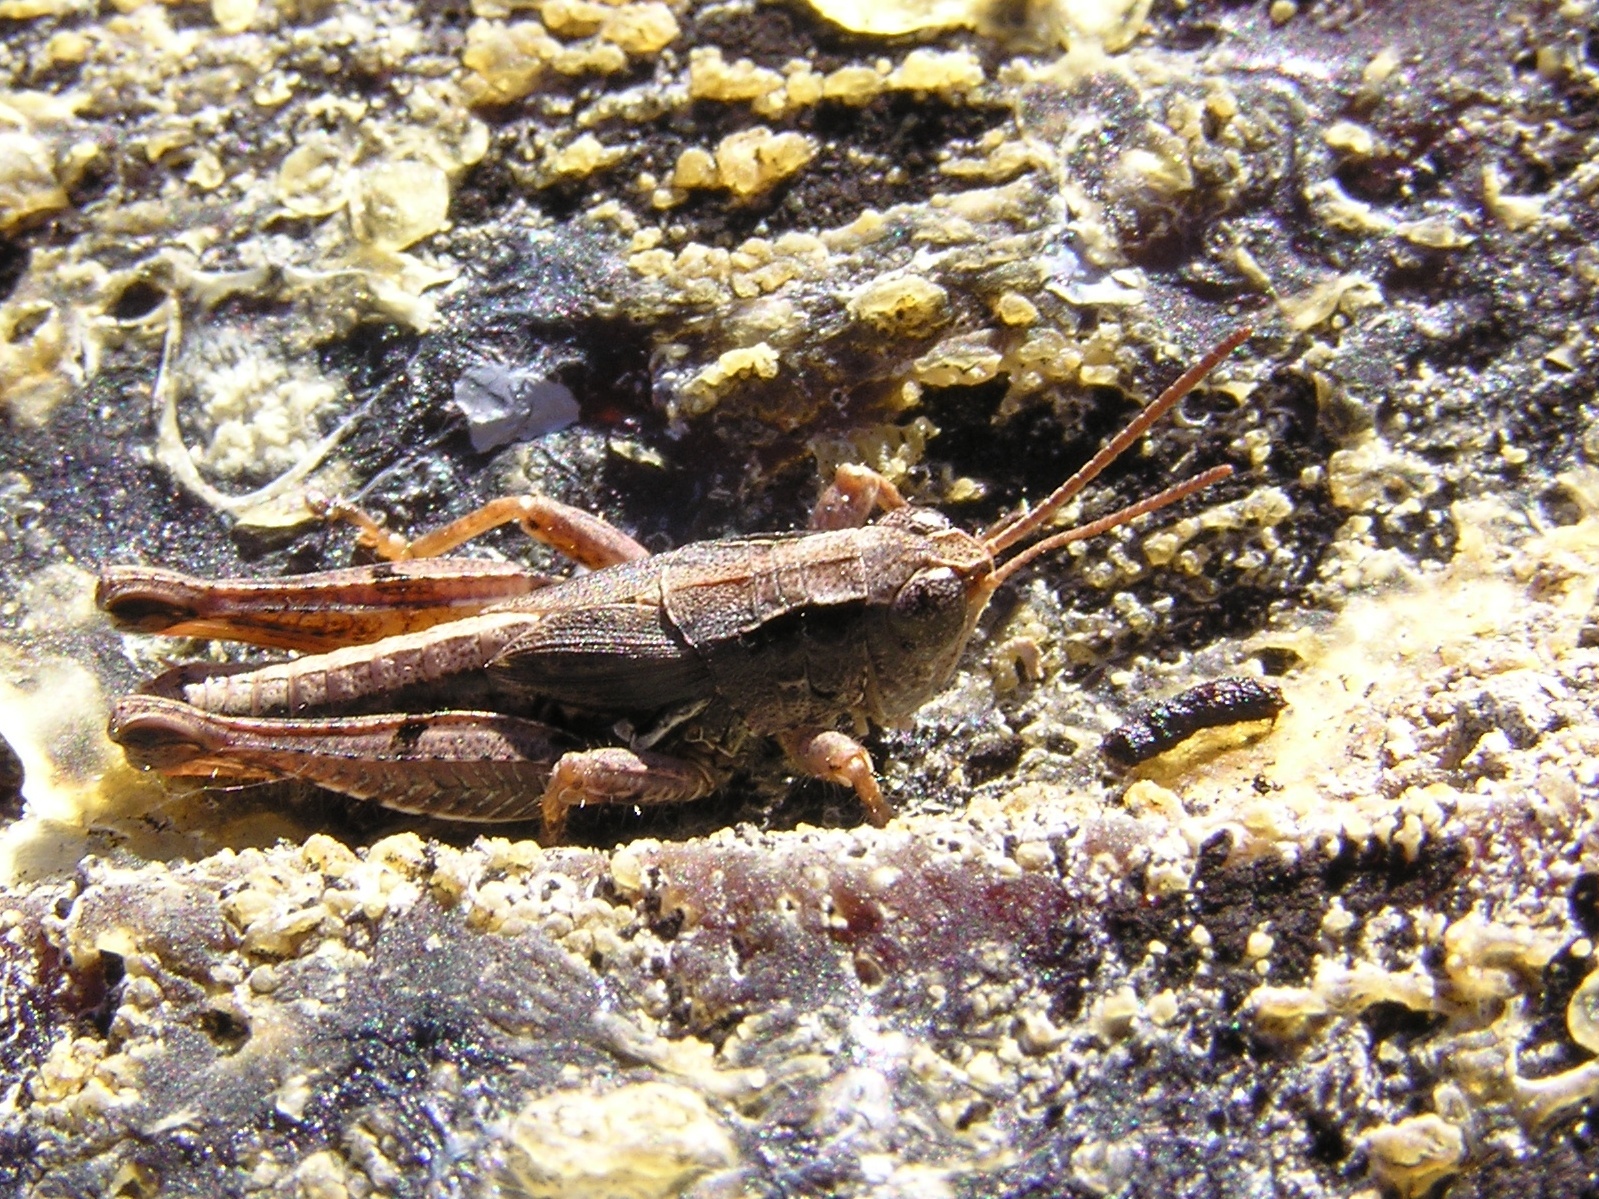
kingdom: Animalia
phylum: Arthropoda
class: Insecta
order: Orthoptera
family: Acrididae
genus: Phaulacridium
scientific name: Phaulacridium marginale
